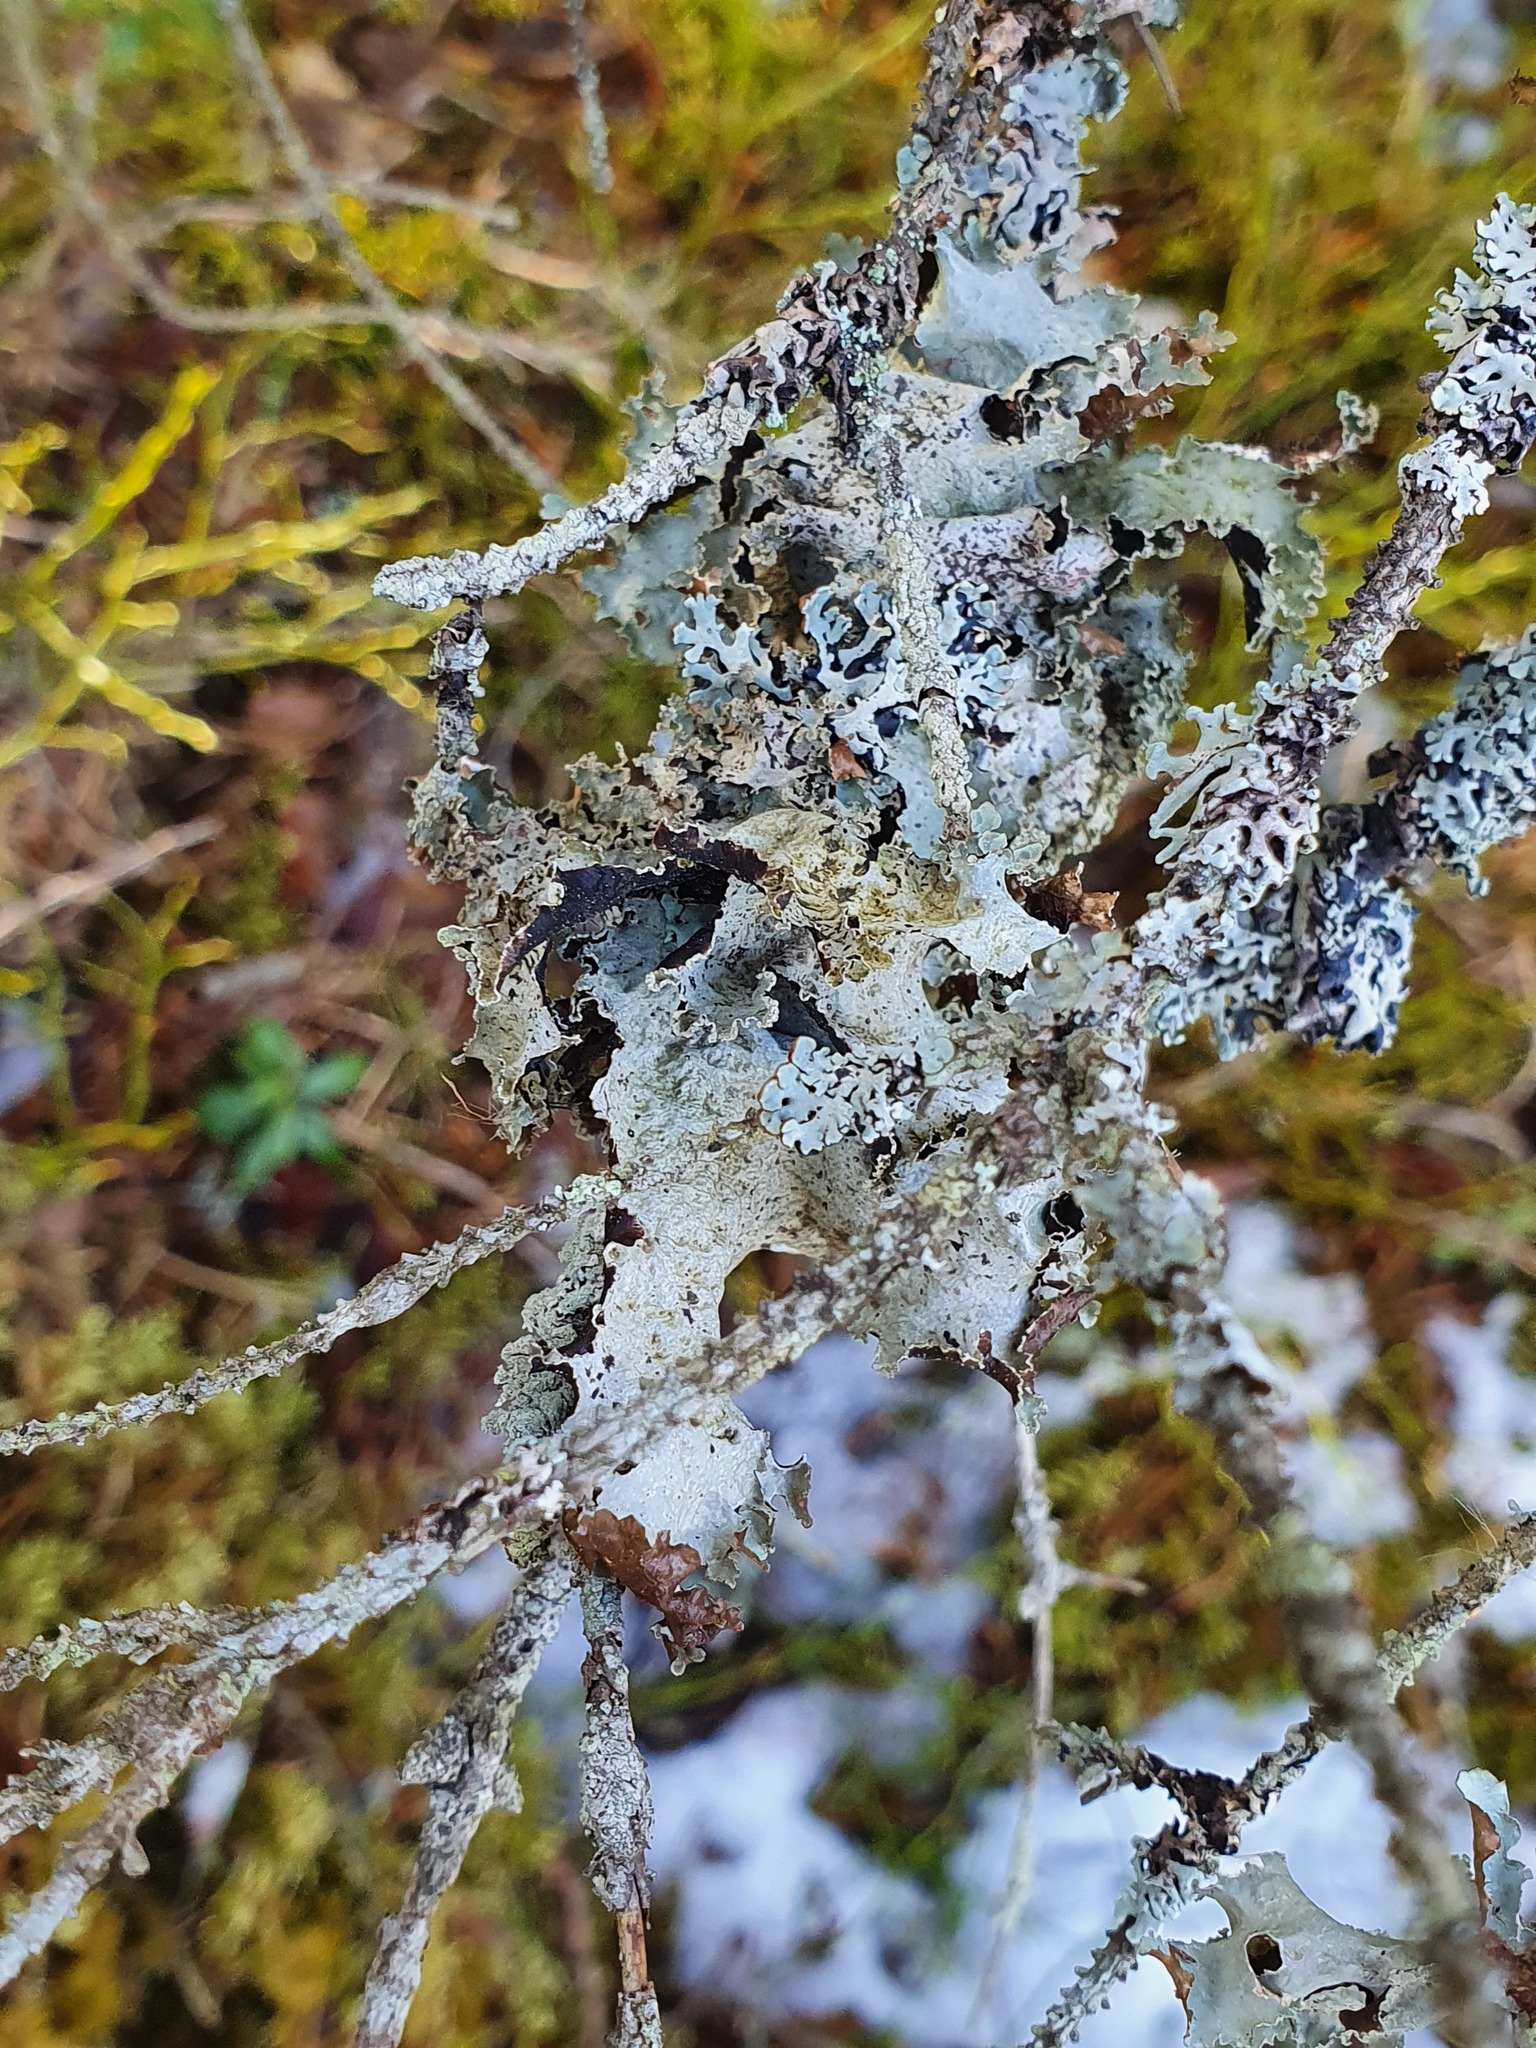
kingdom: Fungi
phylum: Ascomycota
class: Lecanoromycetes
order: Lecanorales
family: Parmeliaceae
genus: Platismatia
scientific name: Platismatia glauca
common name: Varied rag lichen
